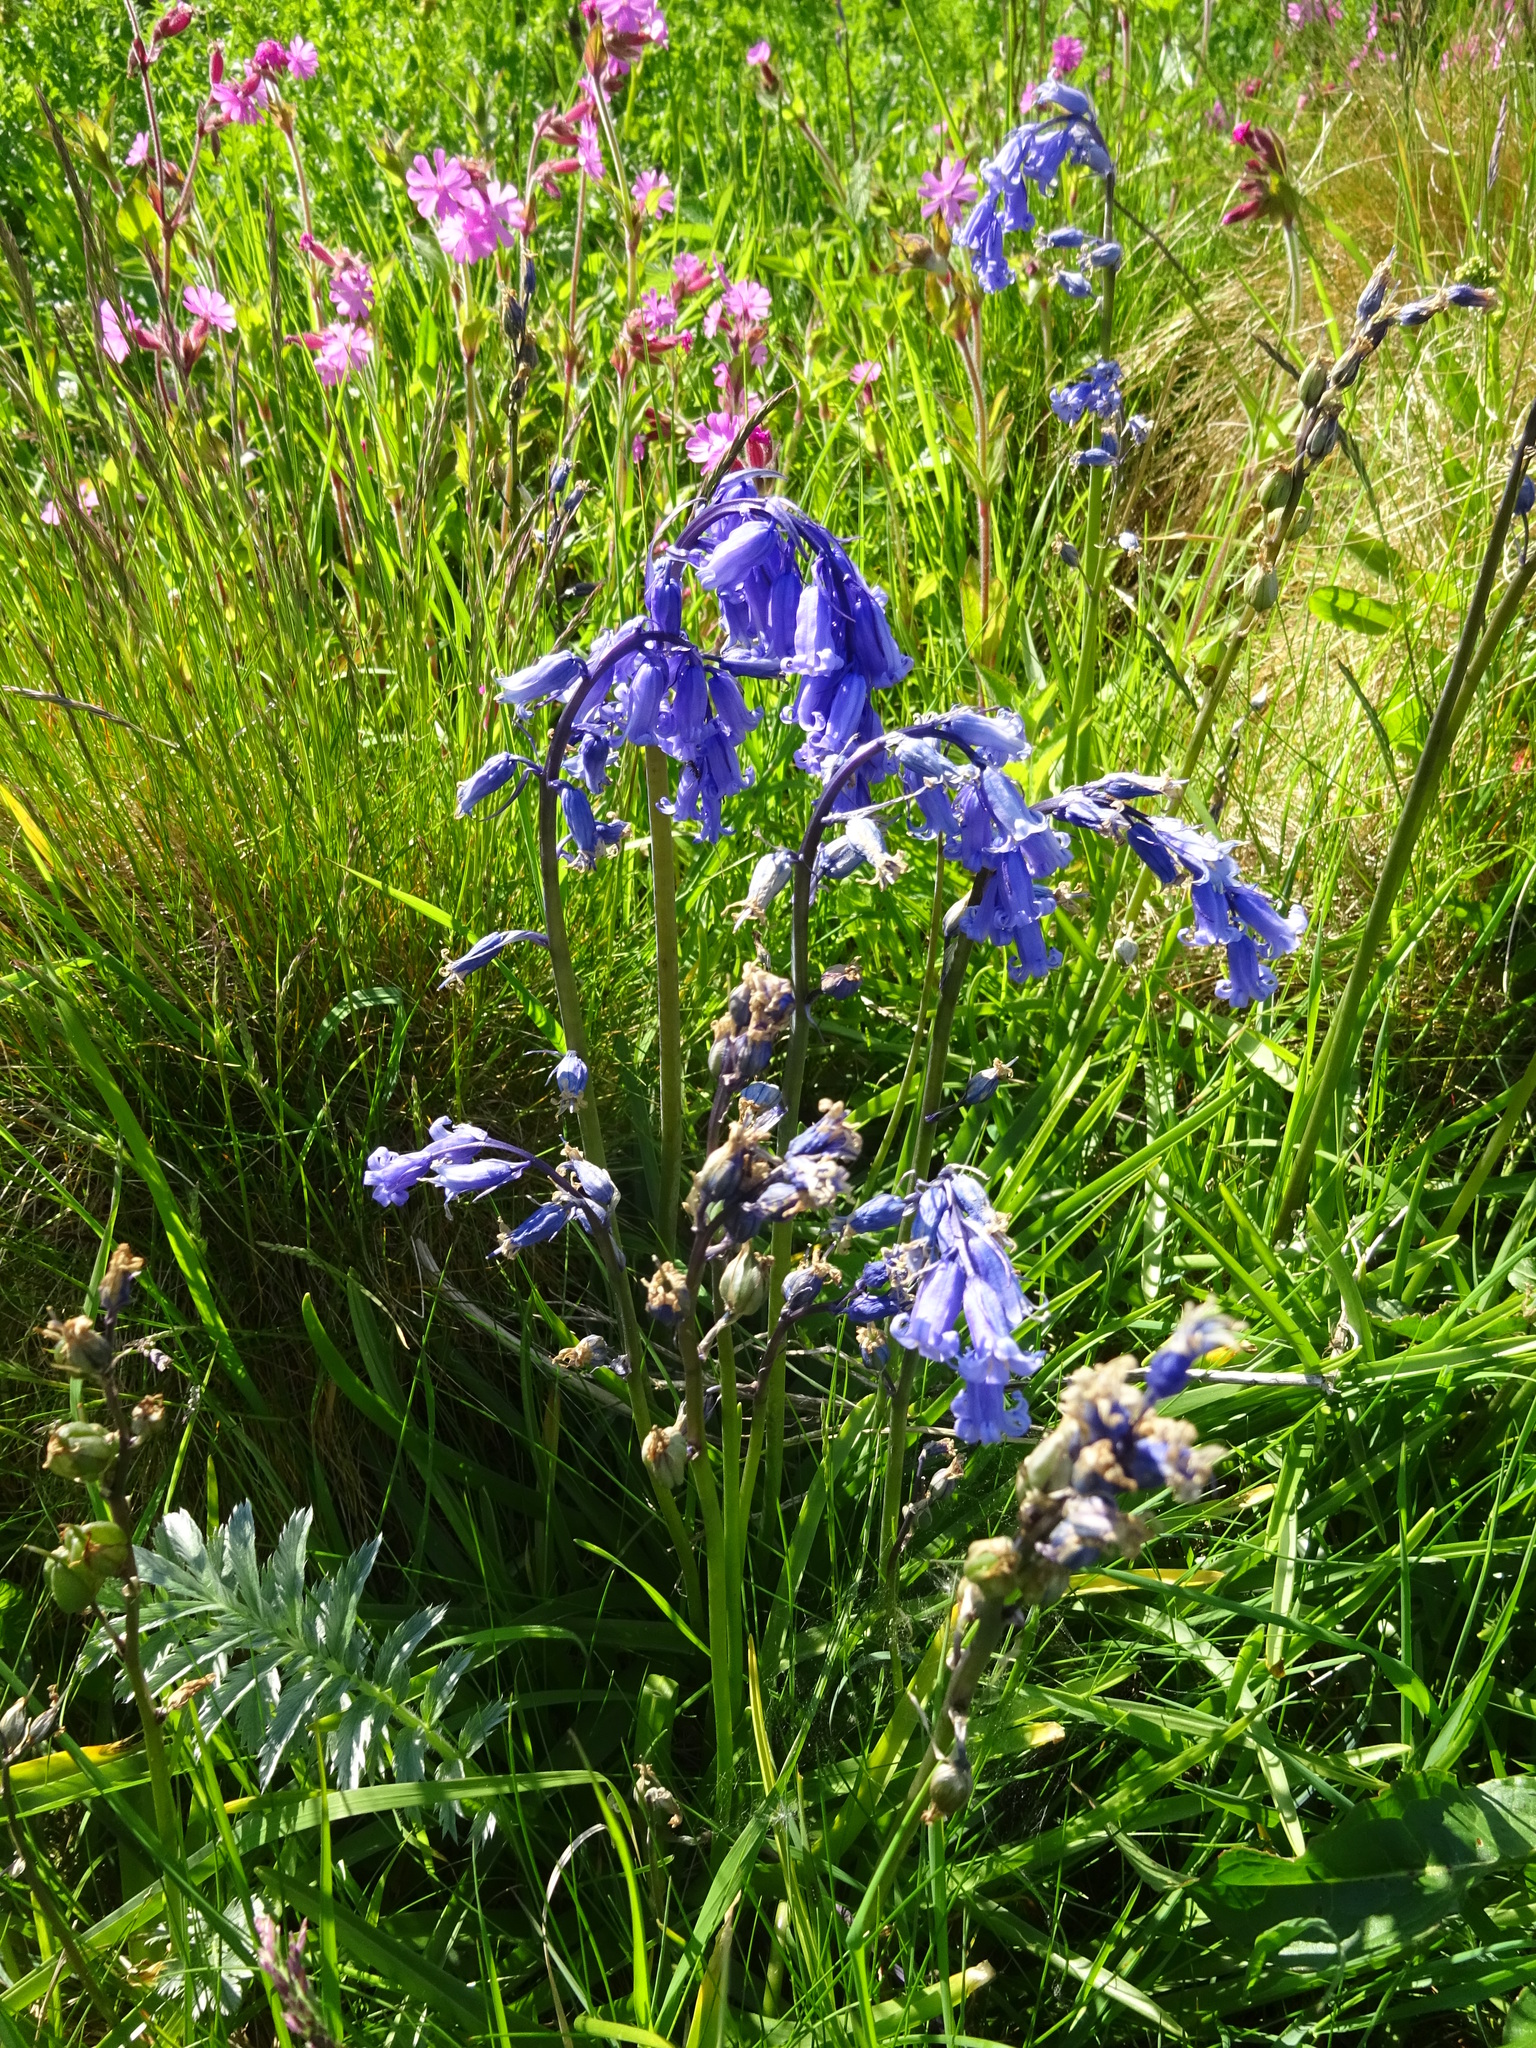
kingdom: Plantae
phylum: Tracheophyta
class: Liliopsida
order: Asparagales
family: Asparagaceae
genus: Hyacinthoides
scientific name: Hyacinthoides non-scripta
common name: Bluebell
